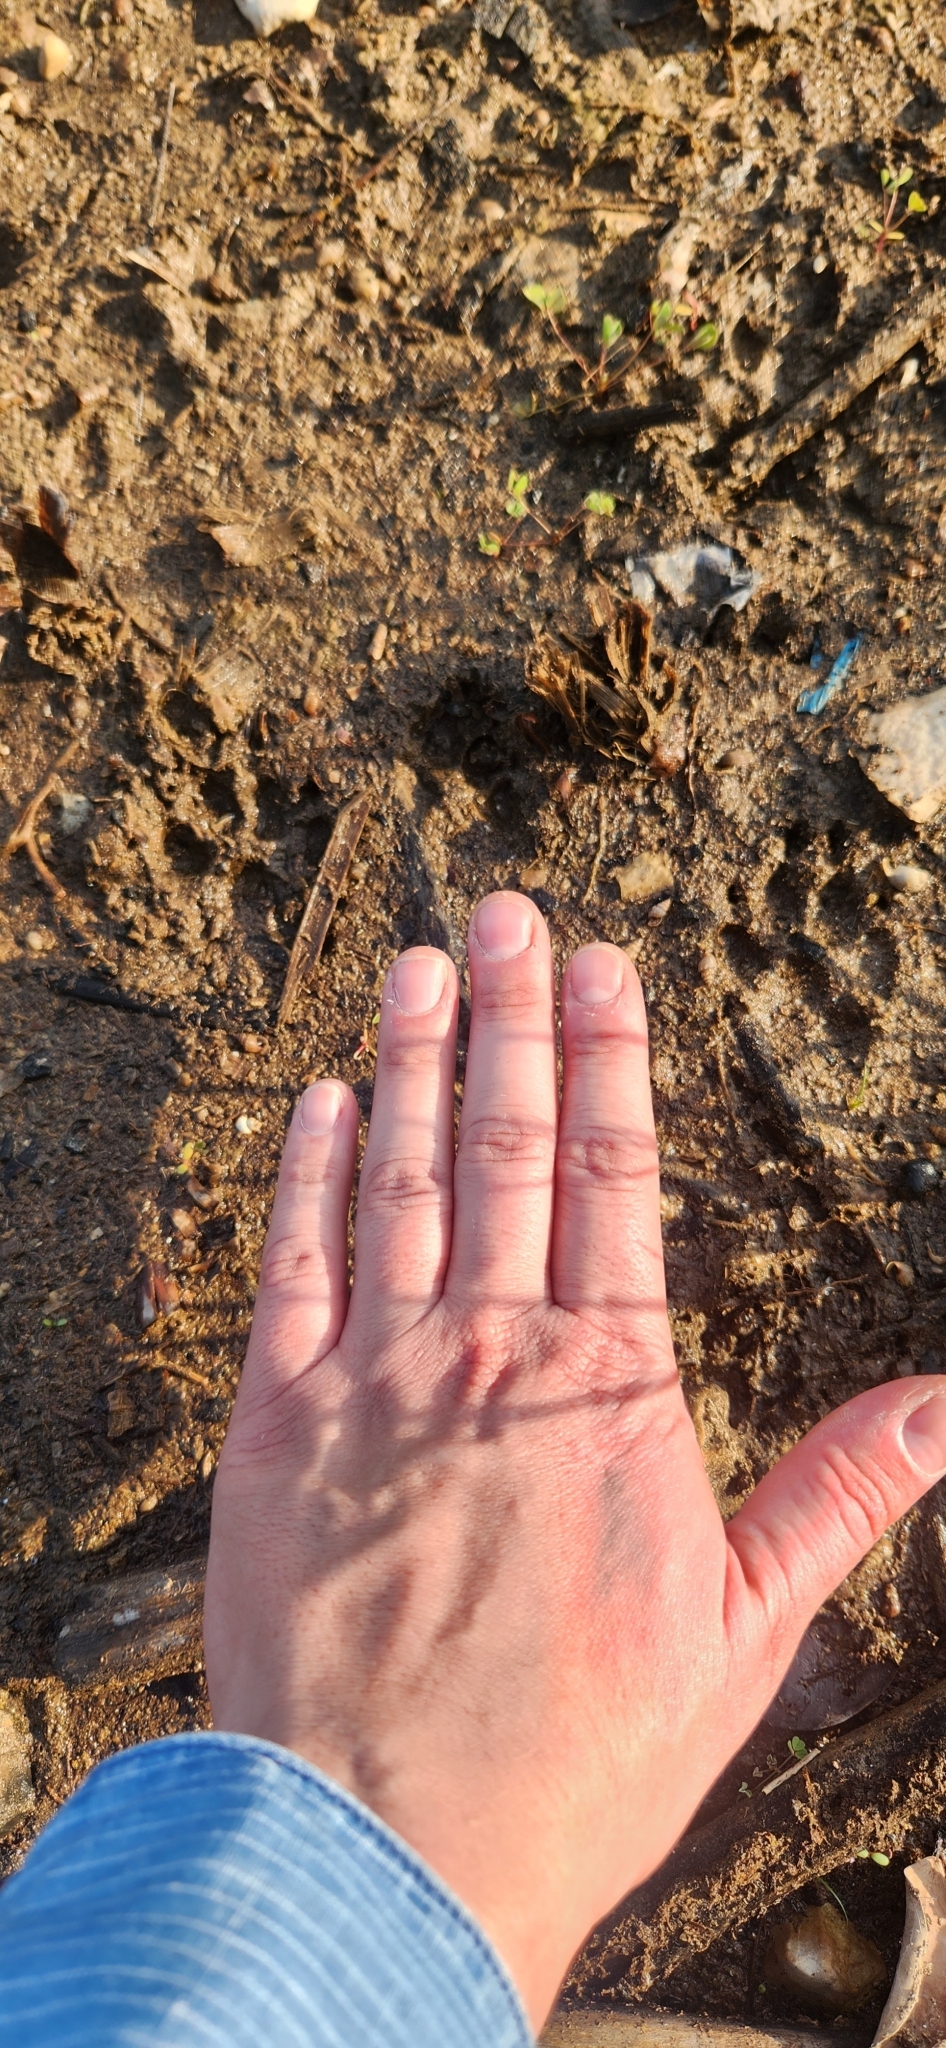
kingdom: Animalia
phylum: Chordata
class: Mammalia
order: Carnivora
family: Canidae
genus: Vulpes
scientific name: Vulpes vulpes
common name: Red fox
